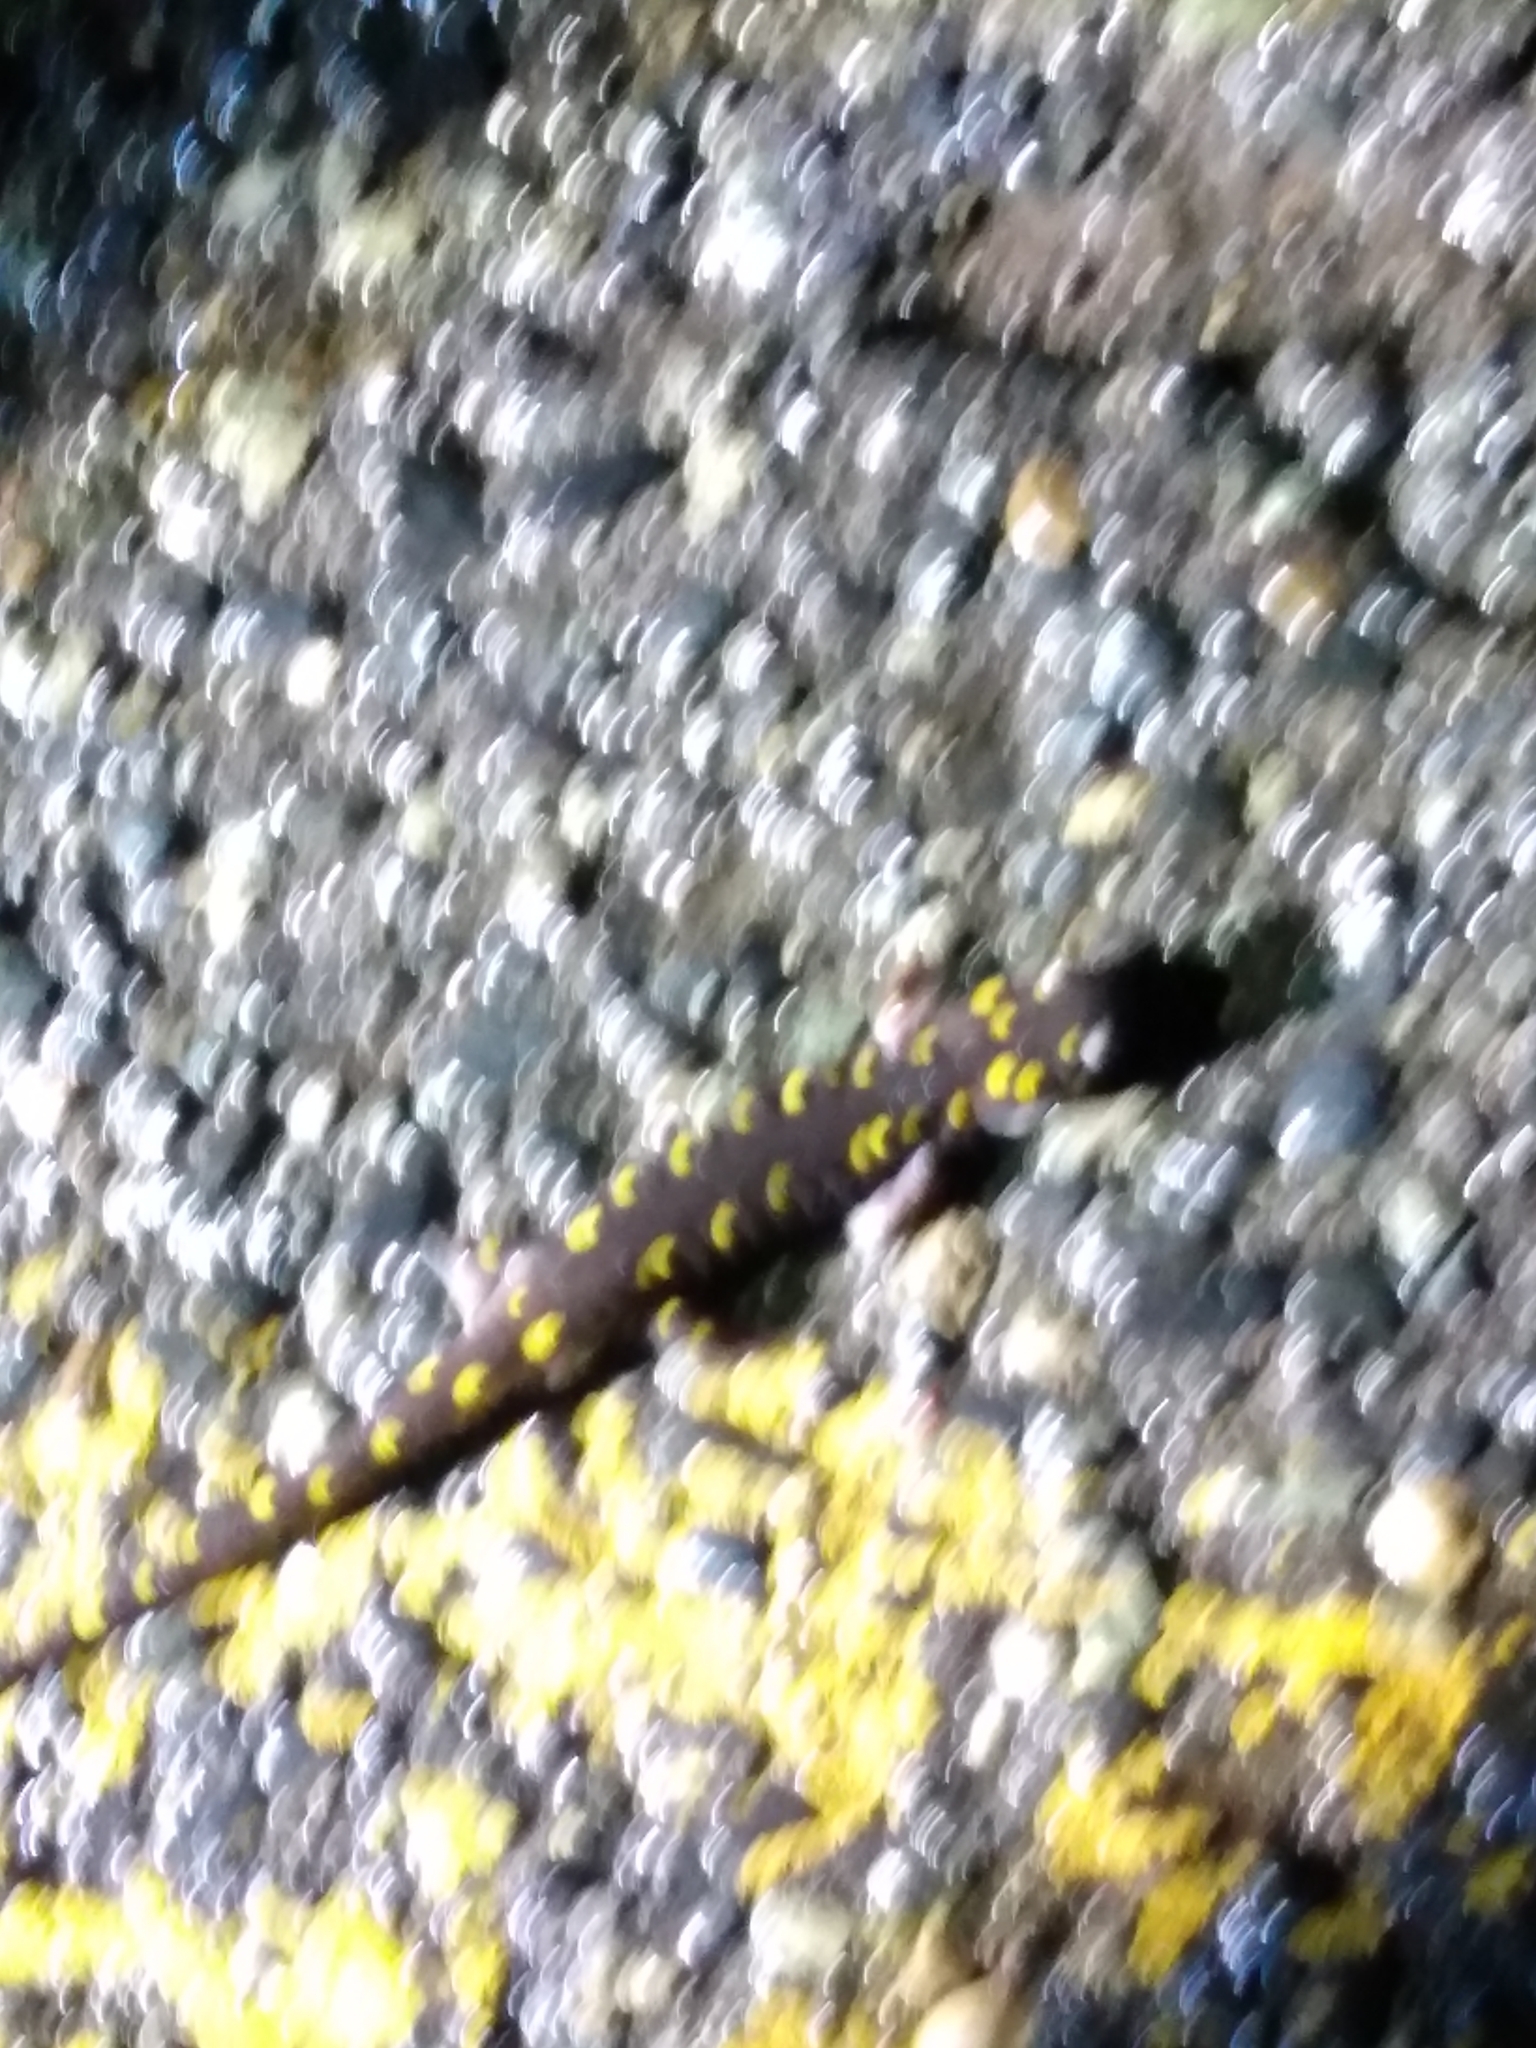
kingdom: Animalia
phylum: Chordata
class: Amphibia
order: Caudata
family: Ambystomatidae
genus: Ambystoma
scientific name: Ambystoma maculatum
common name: Spotted salamander
